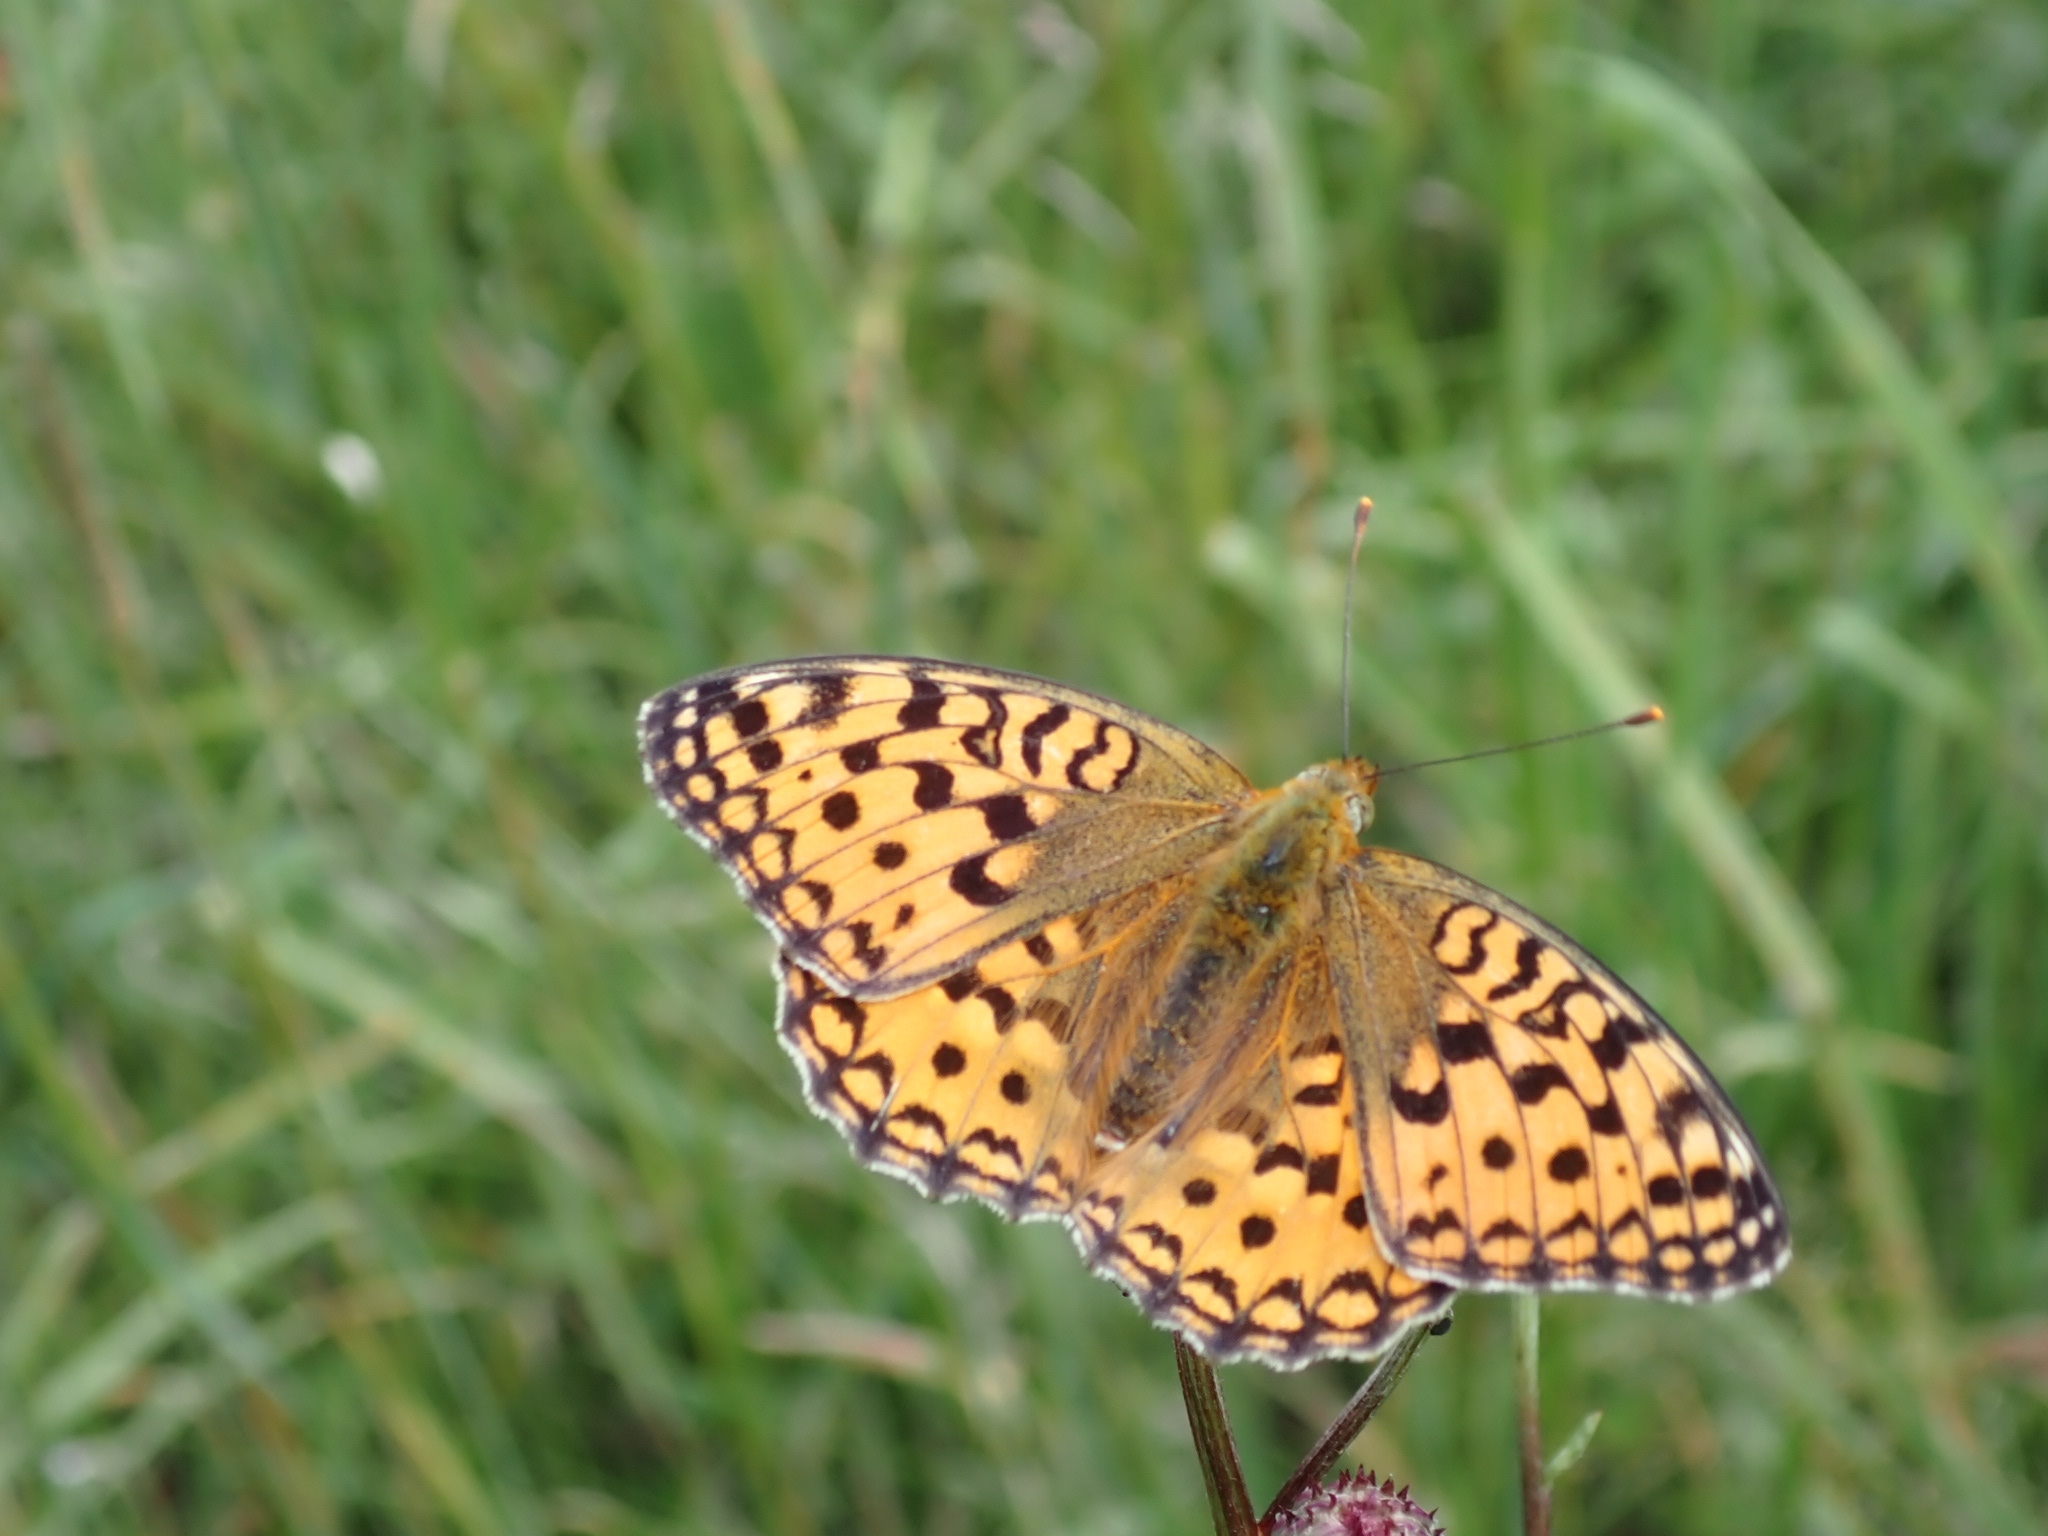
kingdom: Animalia
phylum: Arthropoda
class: Insecta
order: Lepidoptera
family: Nymphalidae
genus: Fabriciana
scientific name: Fabriciana adippe
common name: High brown fritillary
